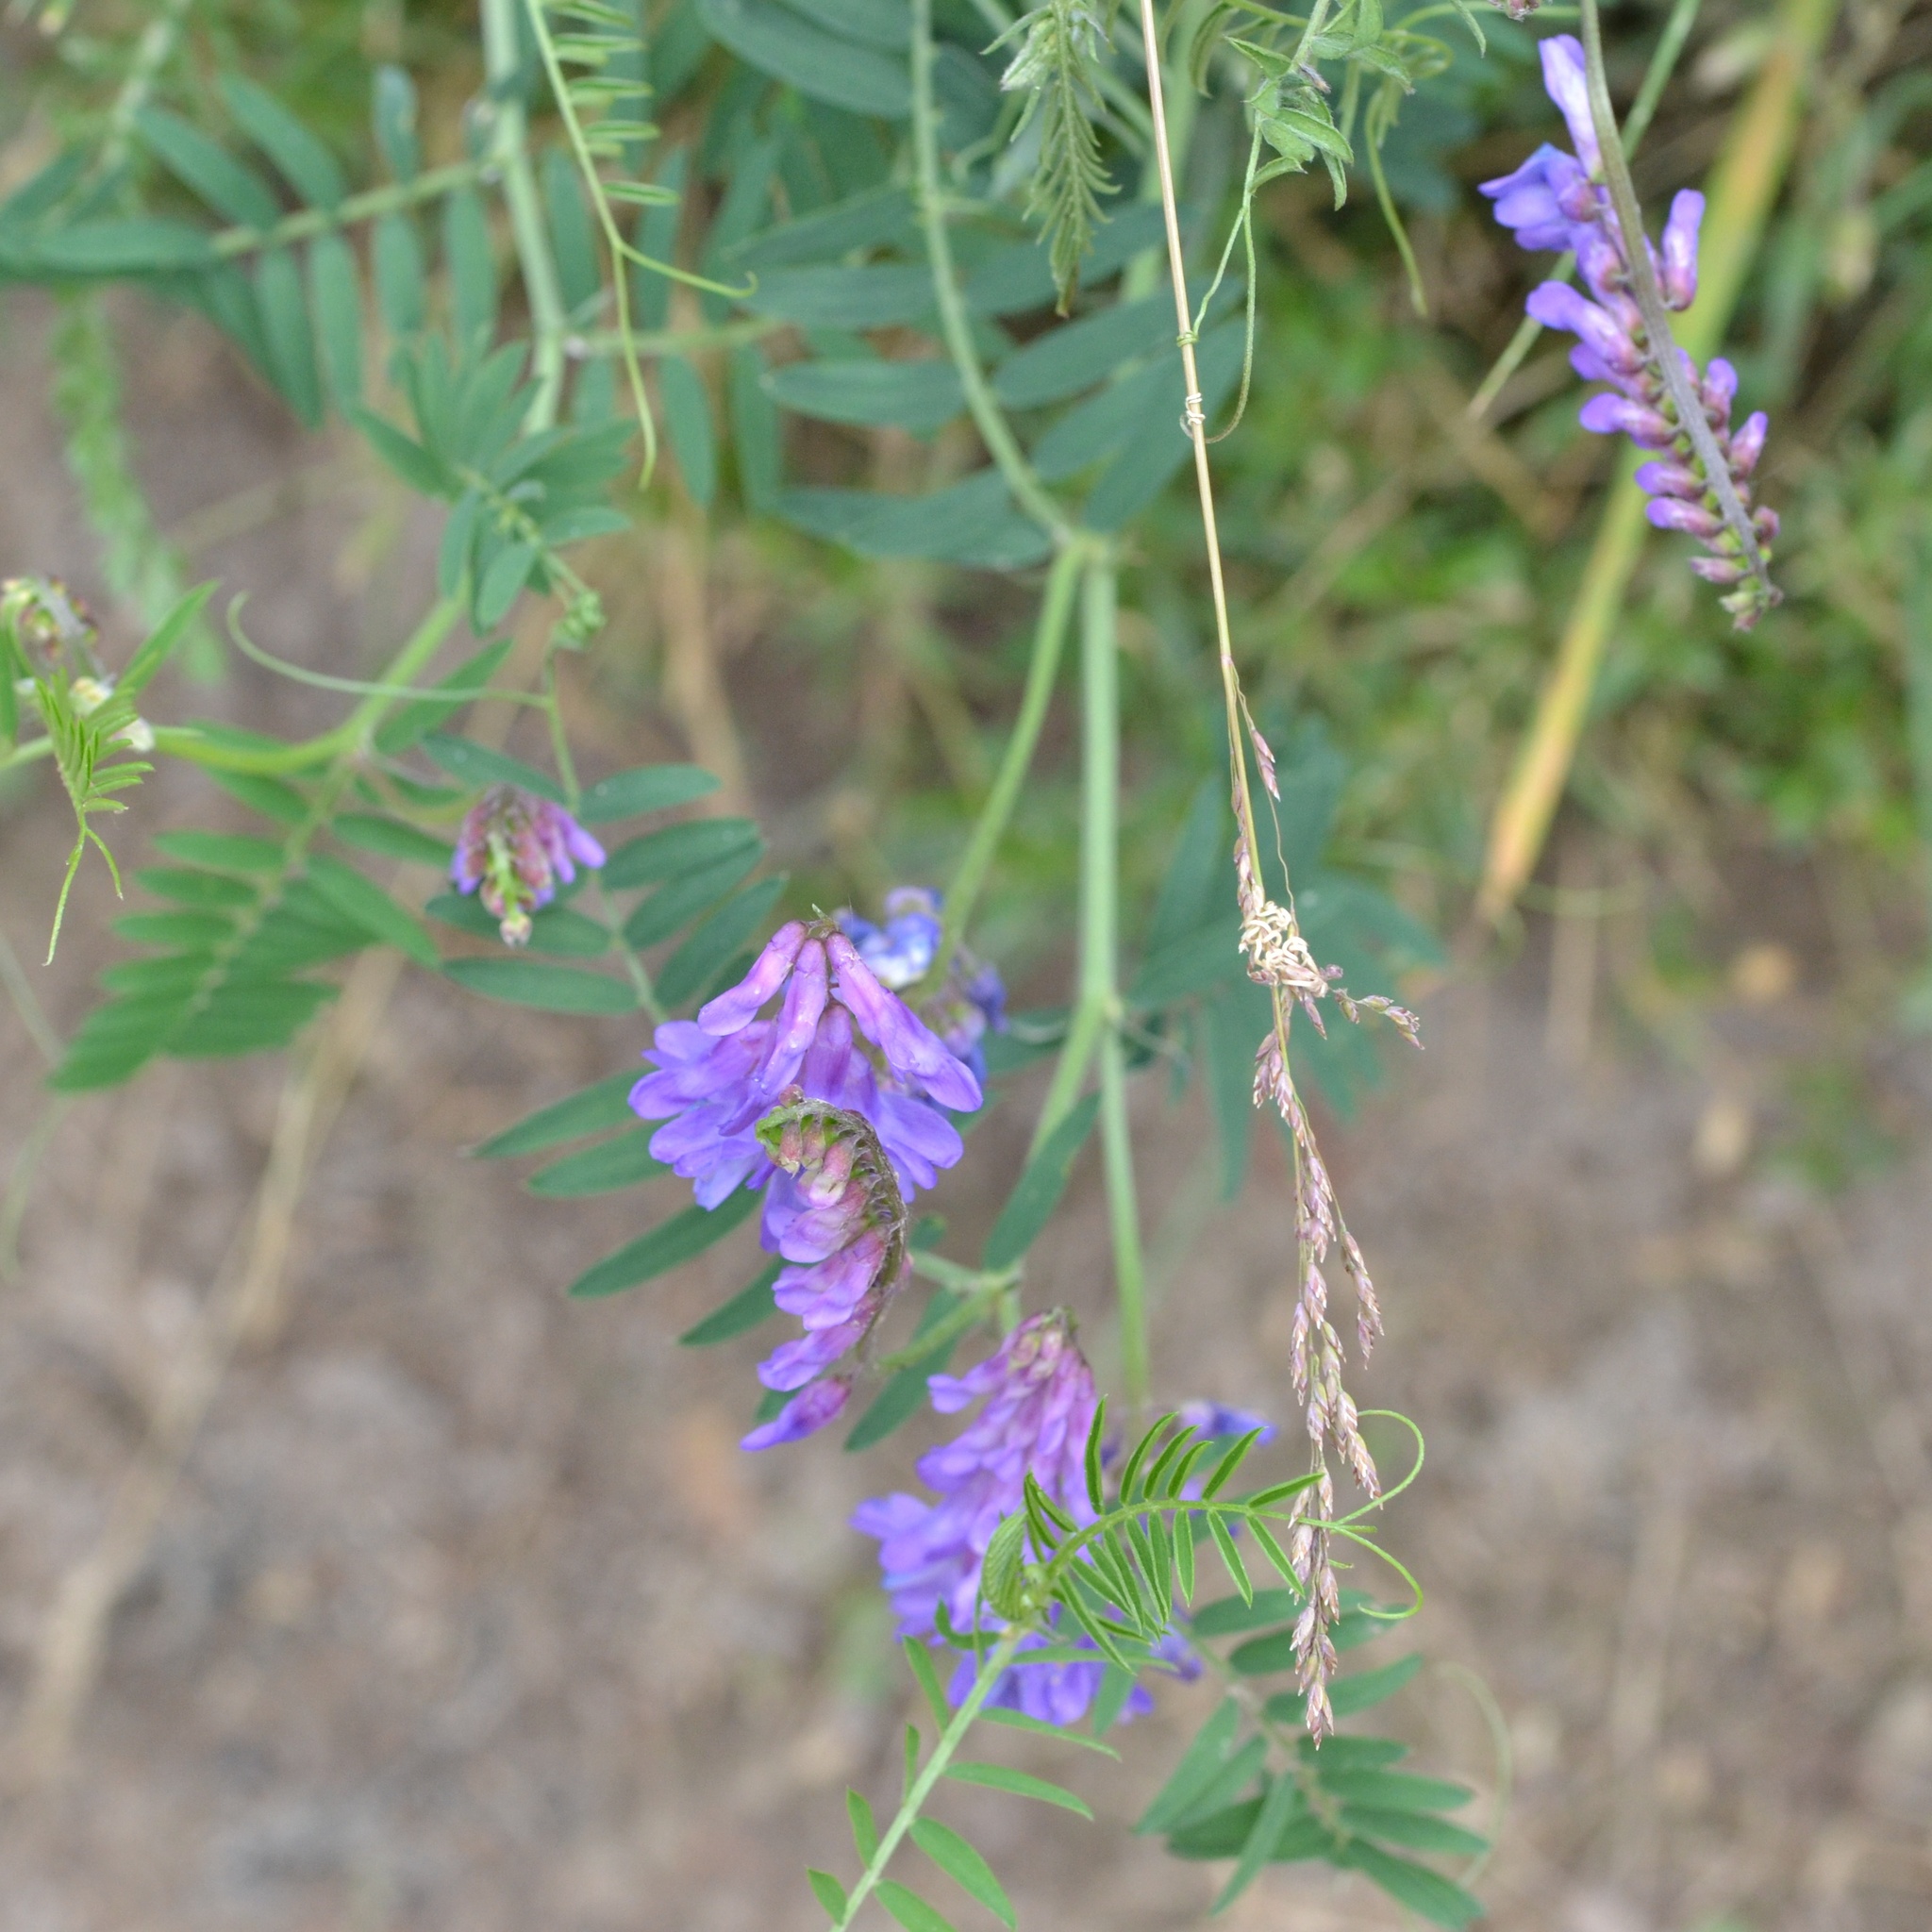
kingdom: Plantae
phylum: Tracheophyta
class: Magnoliopsida
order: Fabales
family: Fabaceae
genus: Vicia
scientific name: Vicia cracca
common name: Bird vetch
